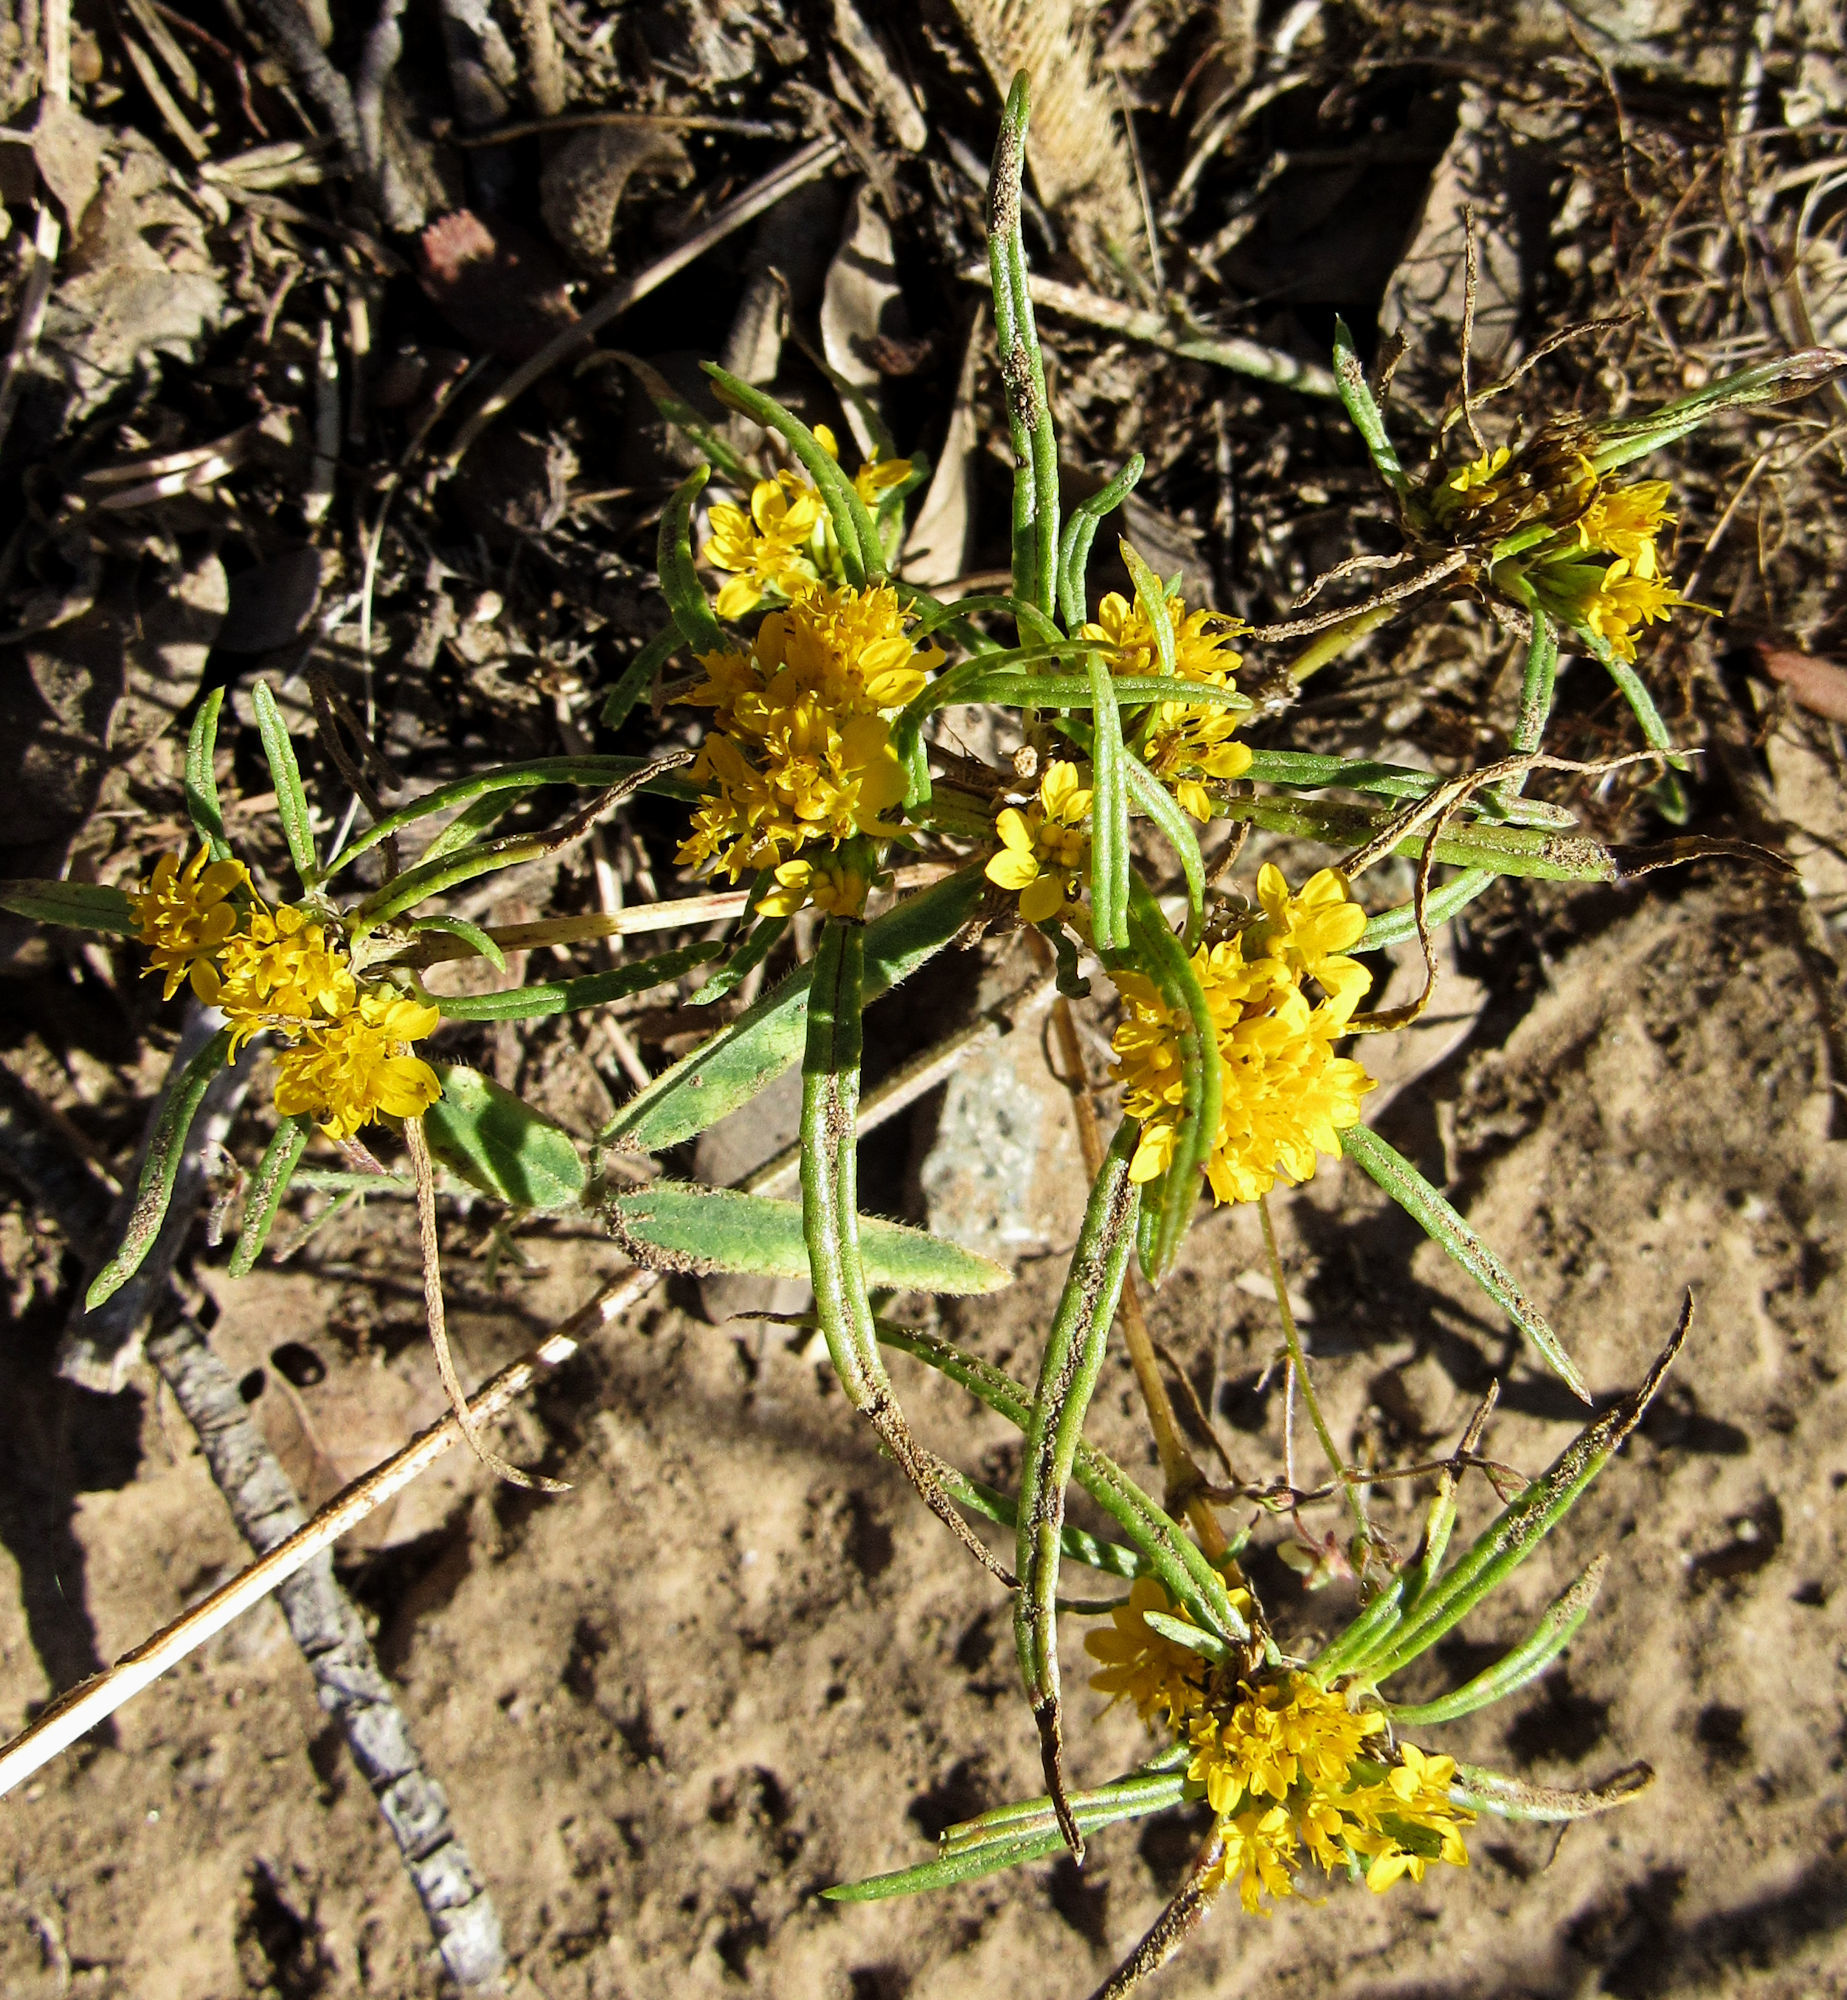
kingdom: Plantae
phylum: Tracheophyta
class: Magnoliopsida
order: Asterales
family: Asteraceae
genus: Pectis
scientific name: Pectis angustifolia
